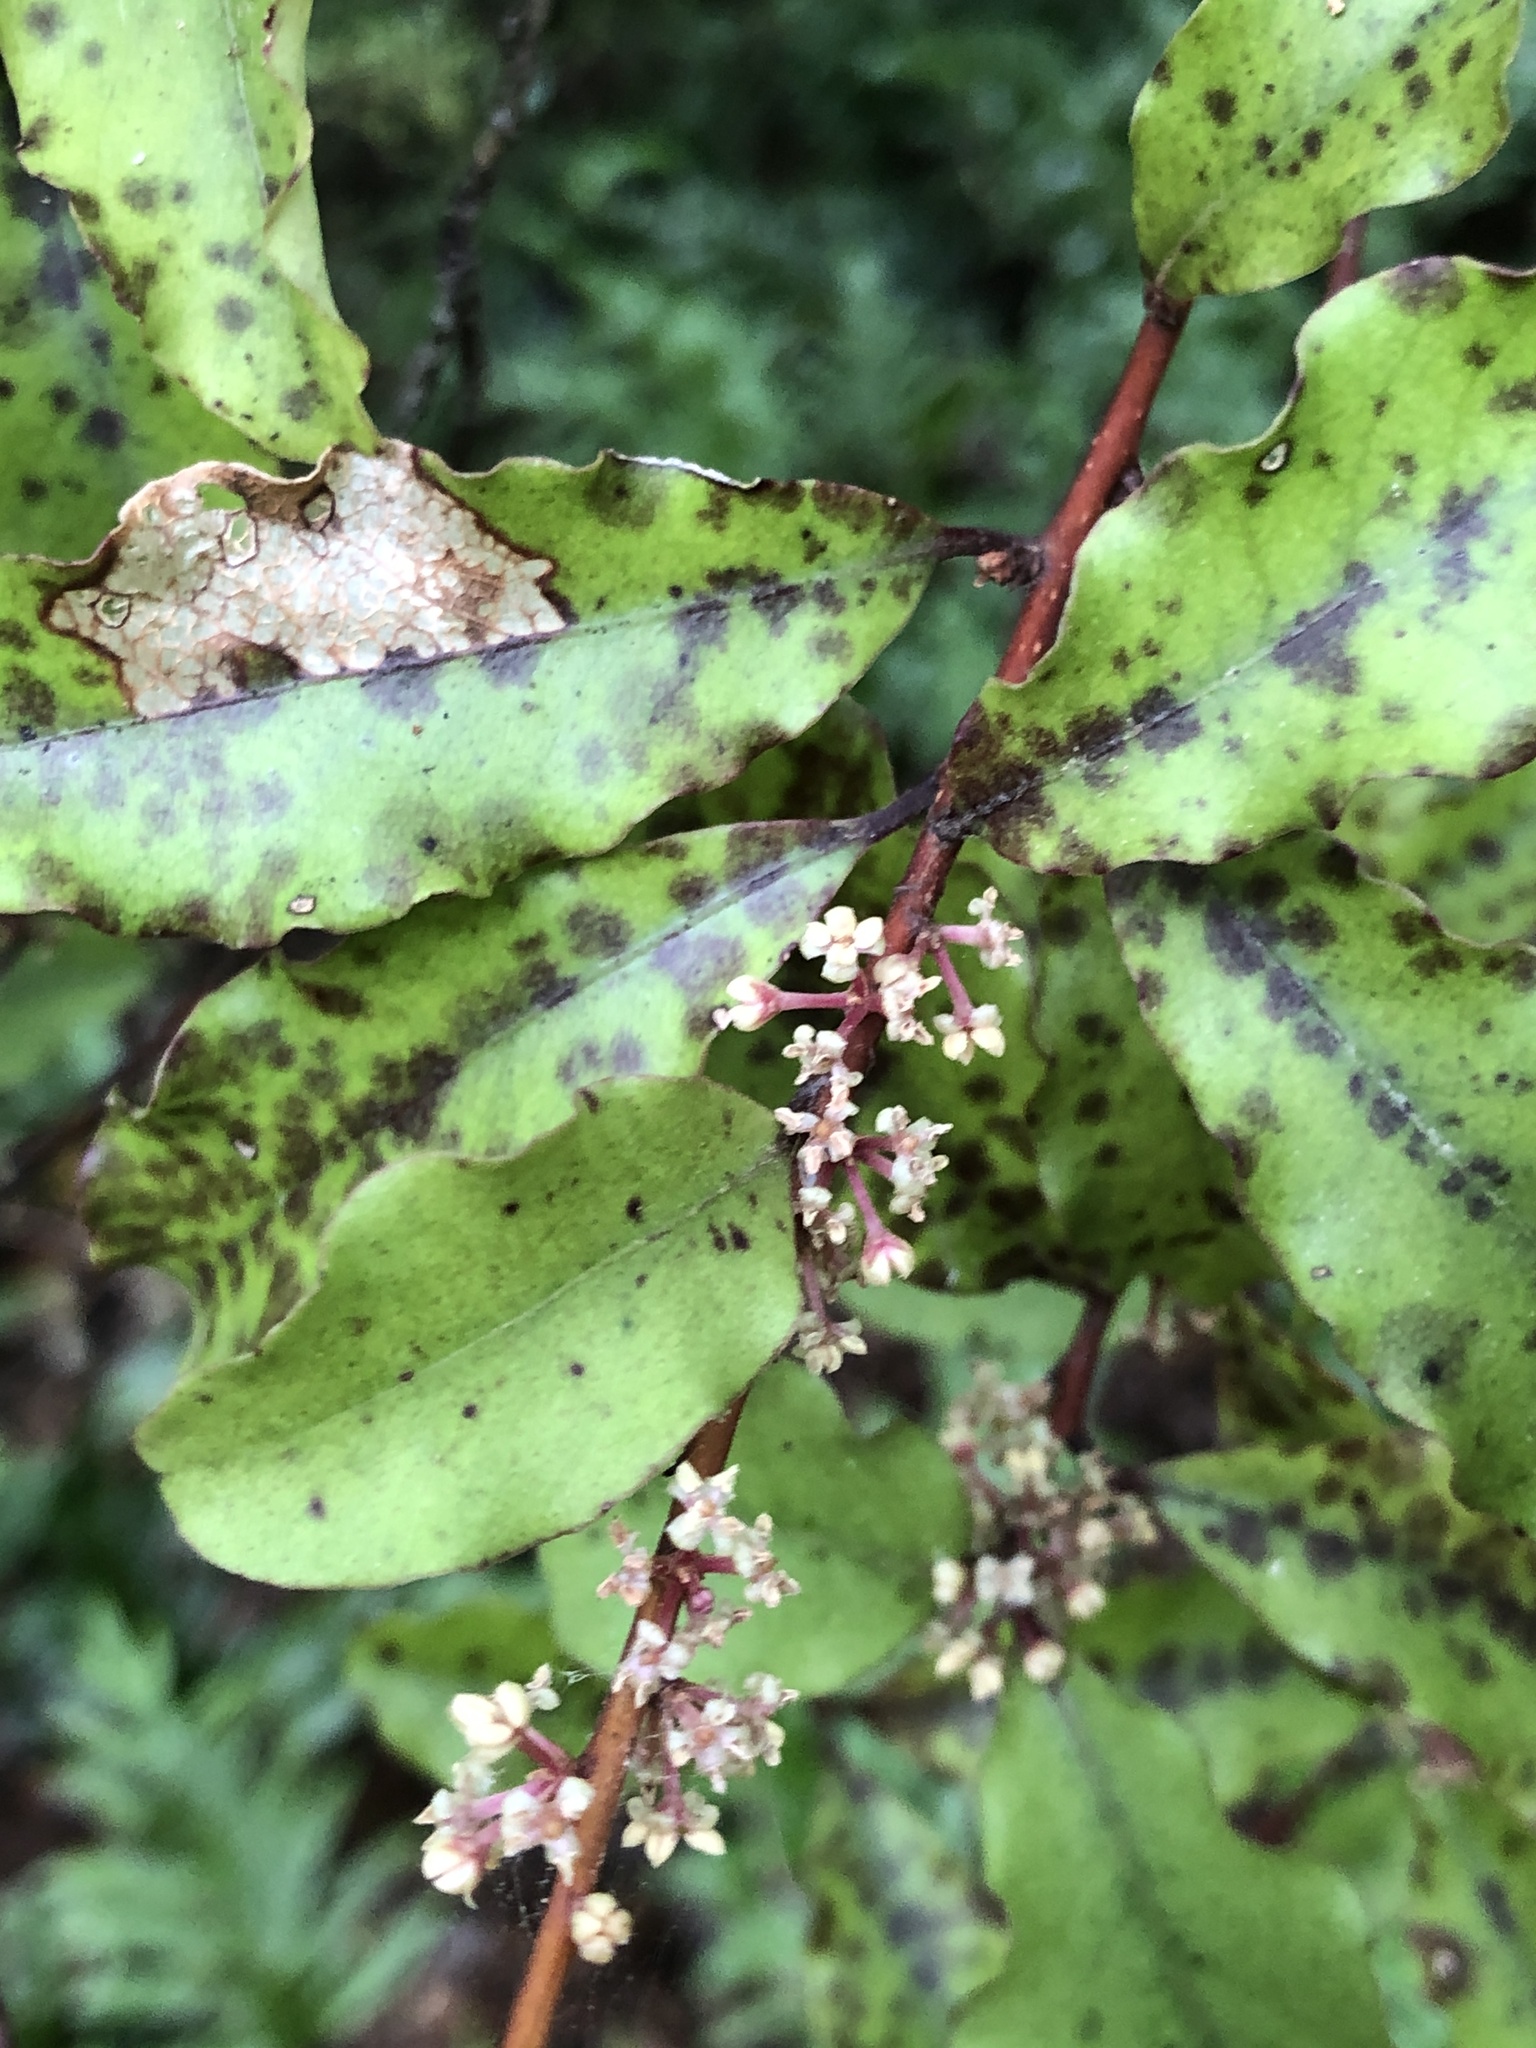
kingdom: Plantae
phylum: Tracheophyta
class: Magnoliopsida
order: Ericales
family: Primulaceae
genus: Myrsine
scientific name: Myrsine australis
